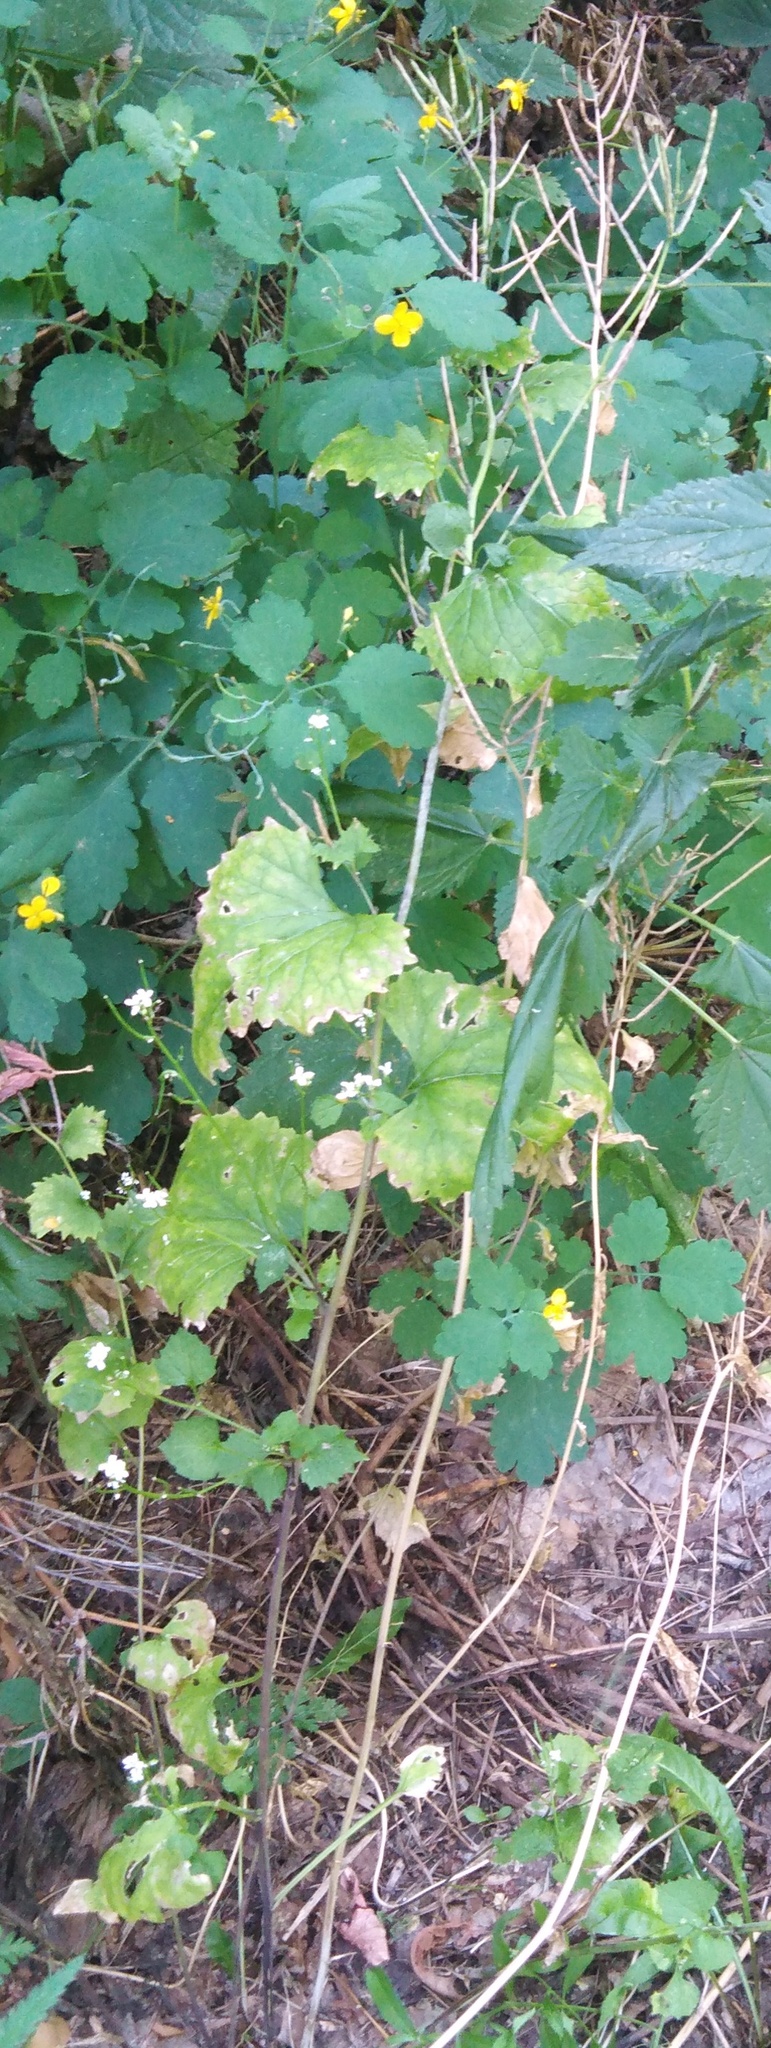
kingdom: Plantae
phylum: Tracheophyta
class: Magnoliopsida
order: Brassicales
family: Brassicaceae
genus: Alliaria
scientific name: Alliaria petiolata
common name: Garlic mustard
